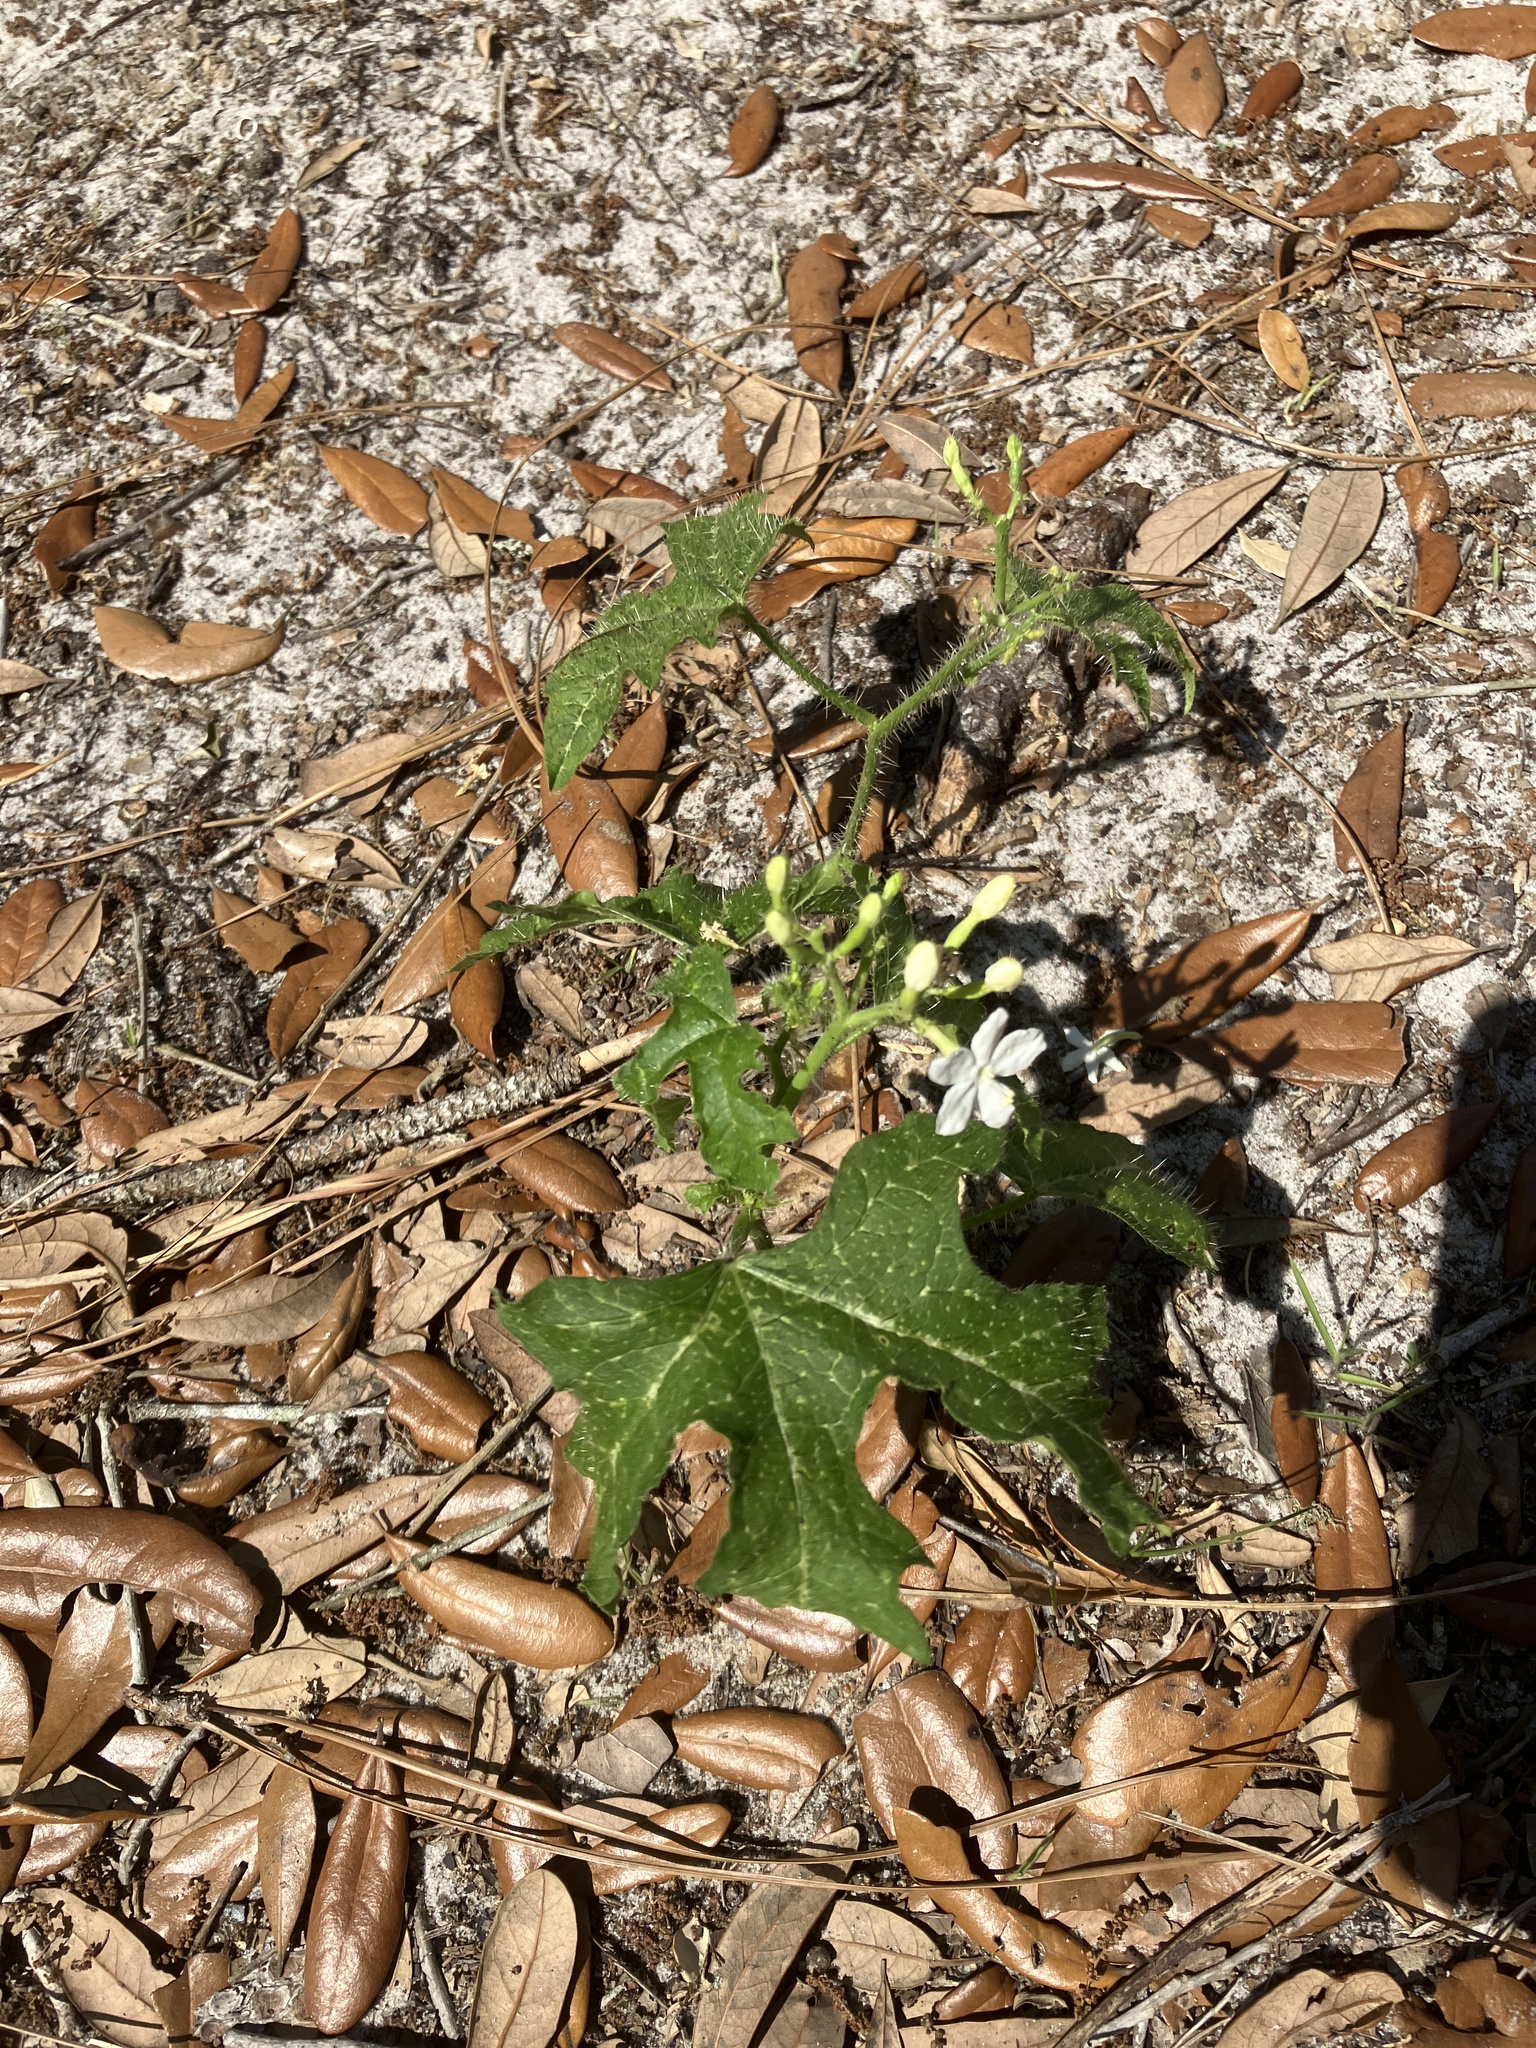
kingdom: Plantae
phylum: Tracheophyta
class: Magnoliopsida
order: Malpighiales
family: Euphorbiaceae
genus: Cnidoscolus
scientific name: Cnidoscolus stimulosus
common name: Bull-nettle
